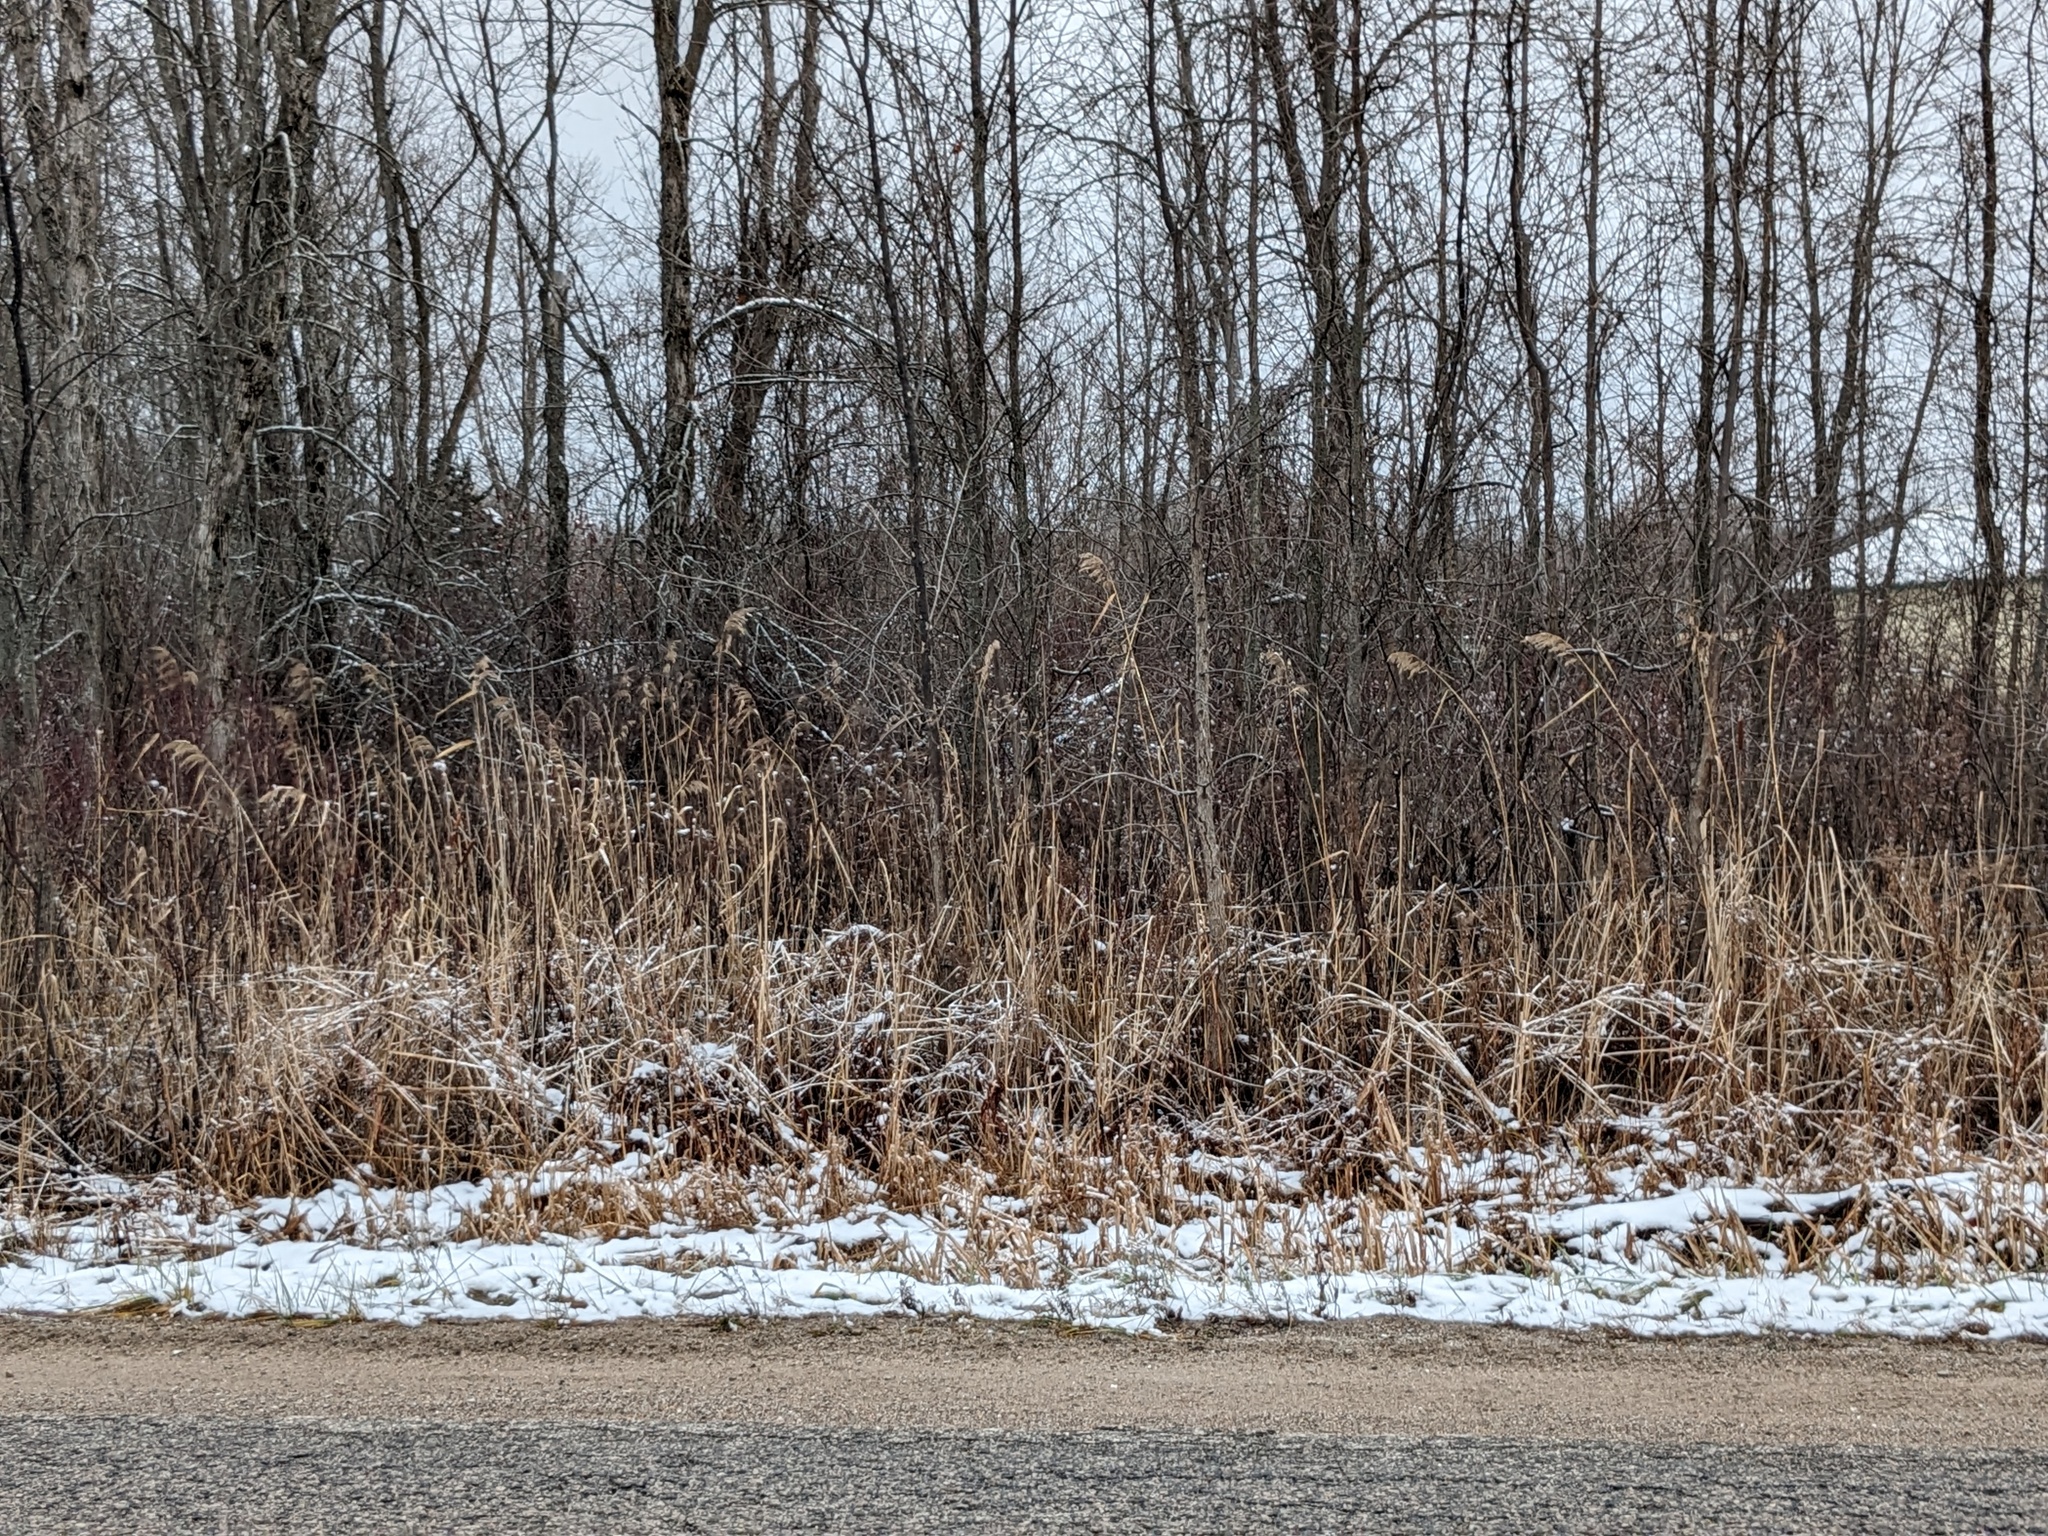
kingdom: Plantae
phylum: Tracheophyta
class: Liliopsida
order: Poales
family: Poaceae
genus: Phragmites
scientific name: Phragmites australis
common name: Common reed
